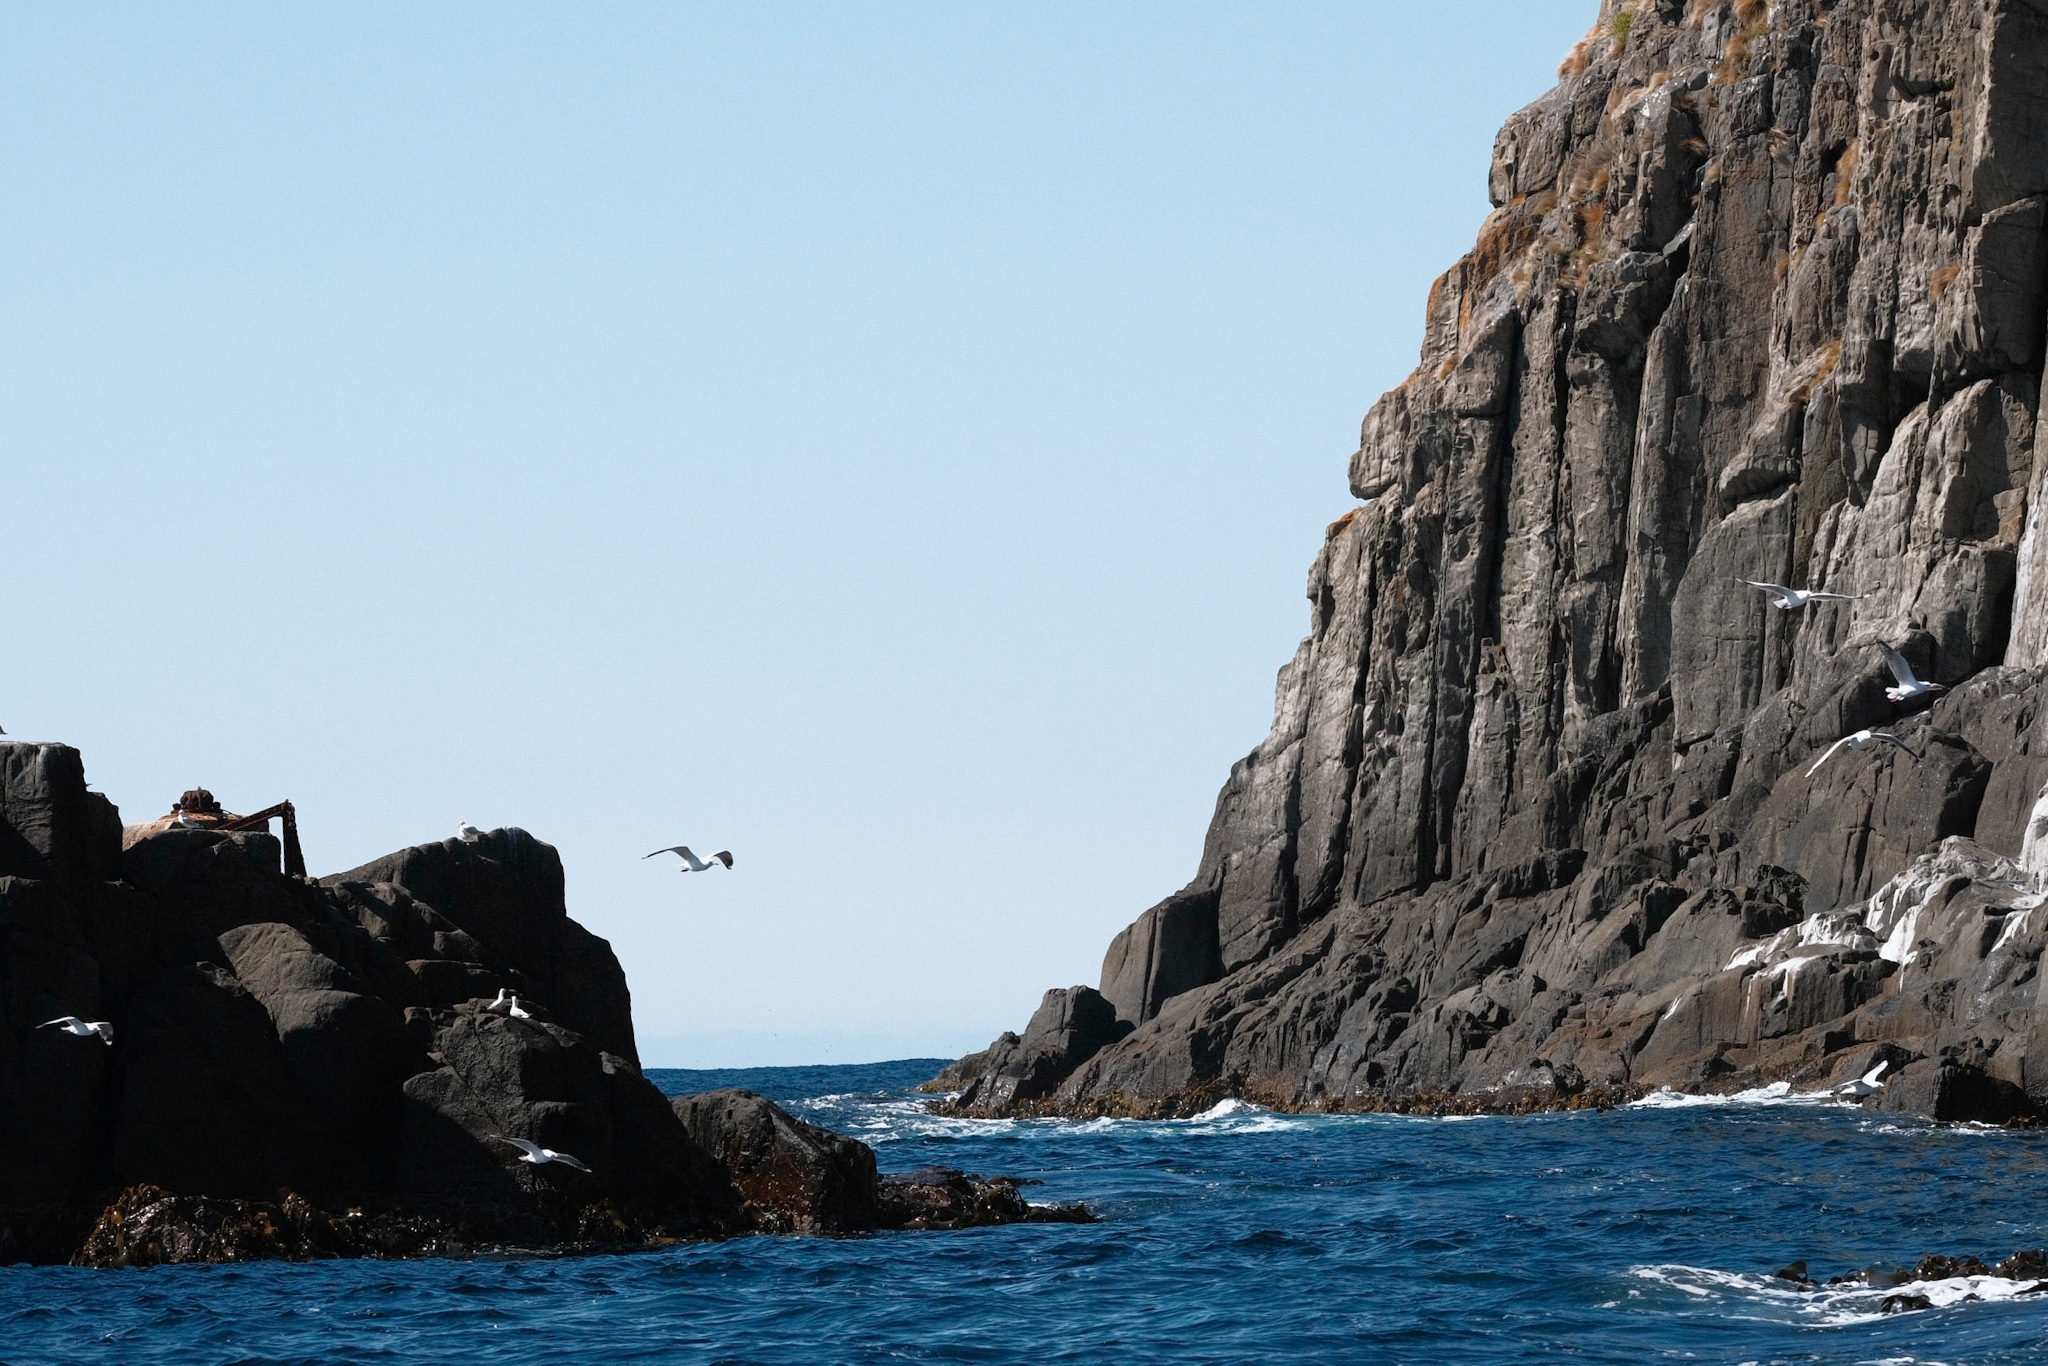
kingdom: Animalia
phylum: Chordata
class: Aves
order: Charadriiformes
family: Laridae
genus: Chroicocephalus
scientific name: Chroicocephalus novaehollandiae
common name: Silver gull
